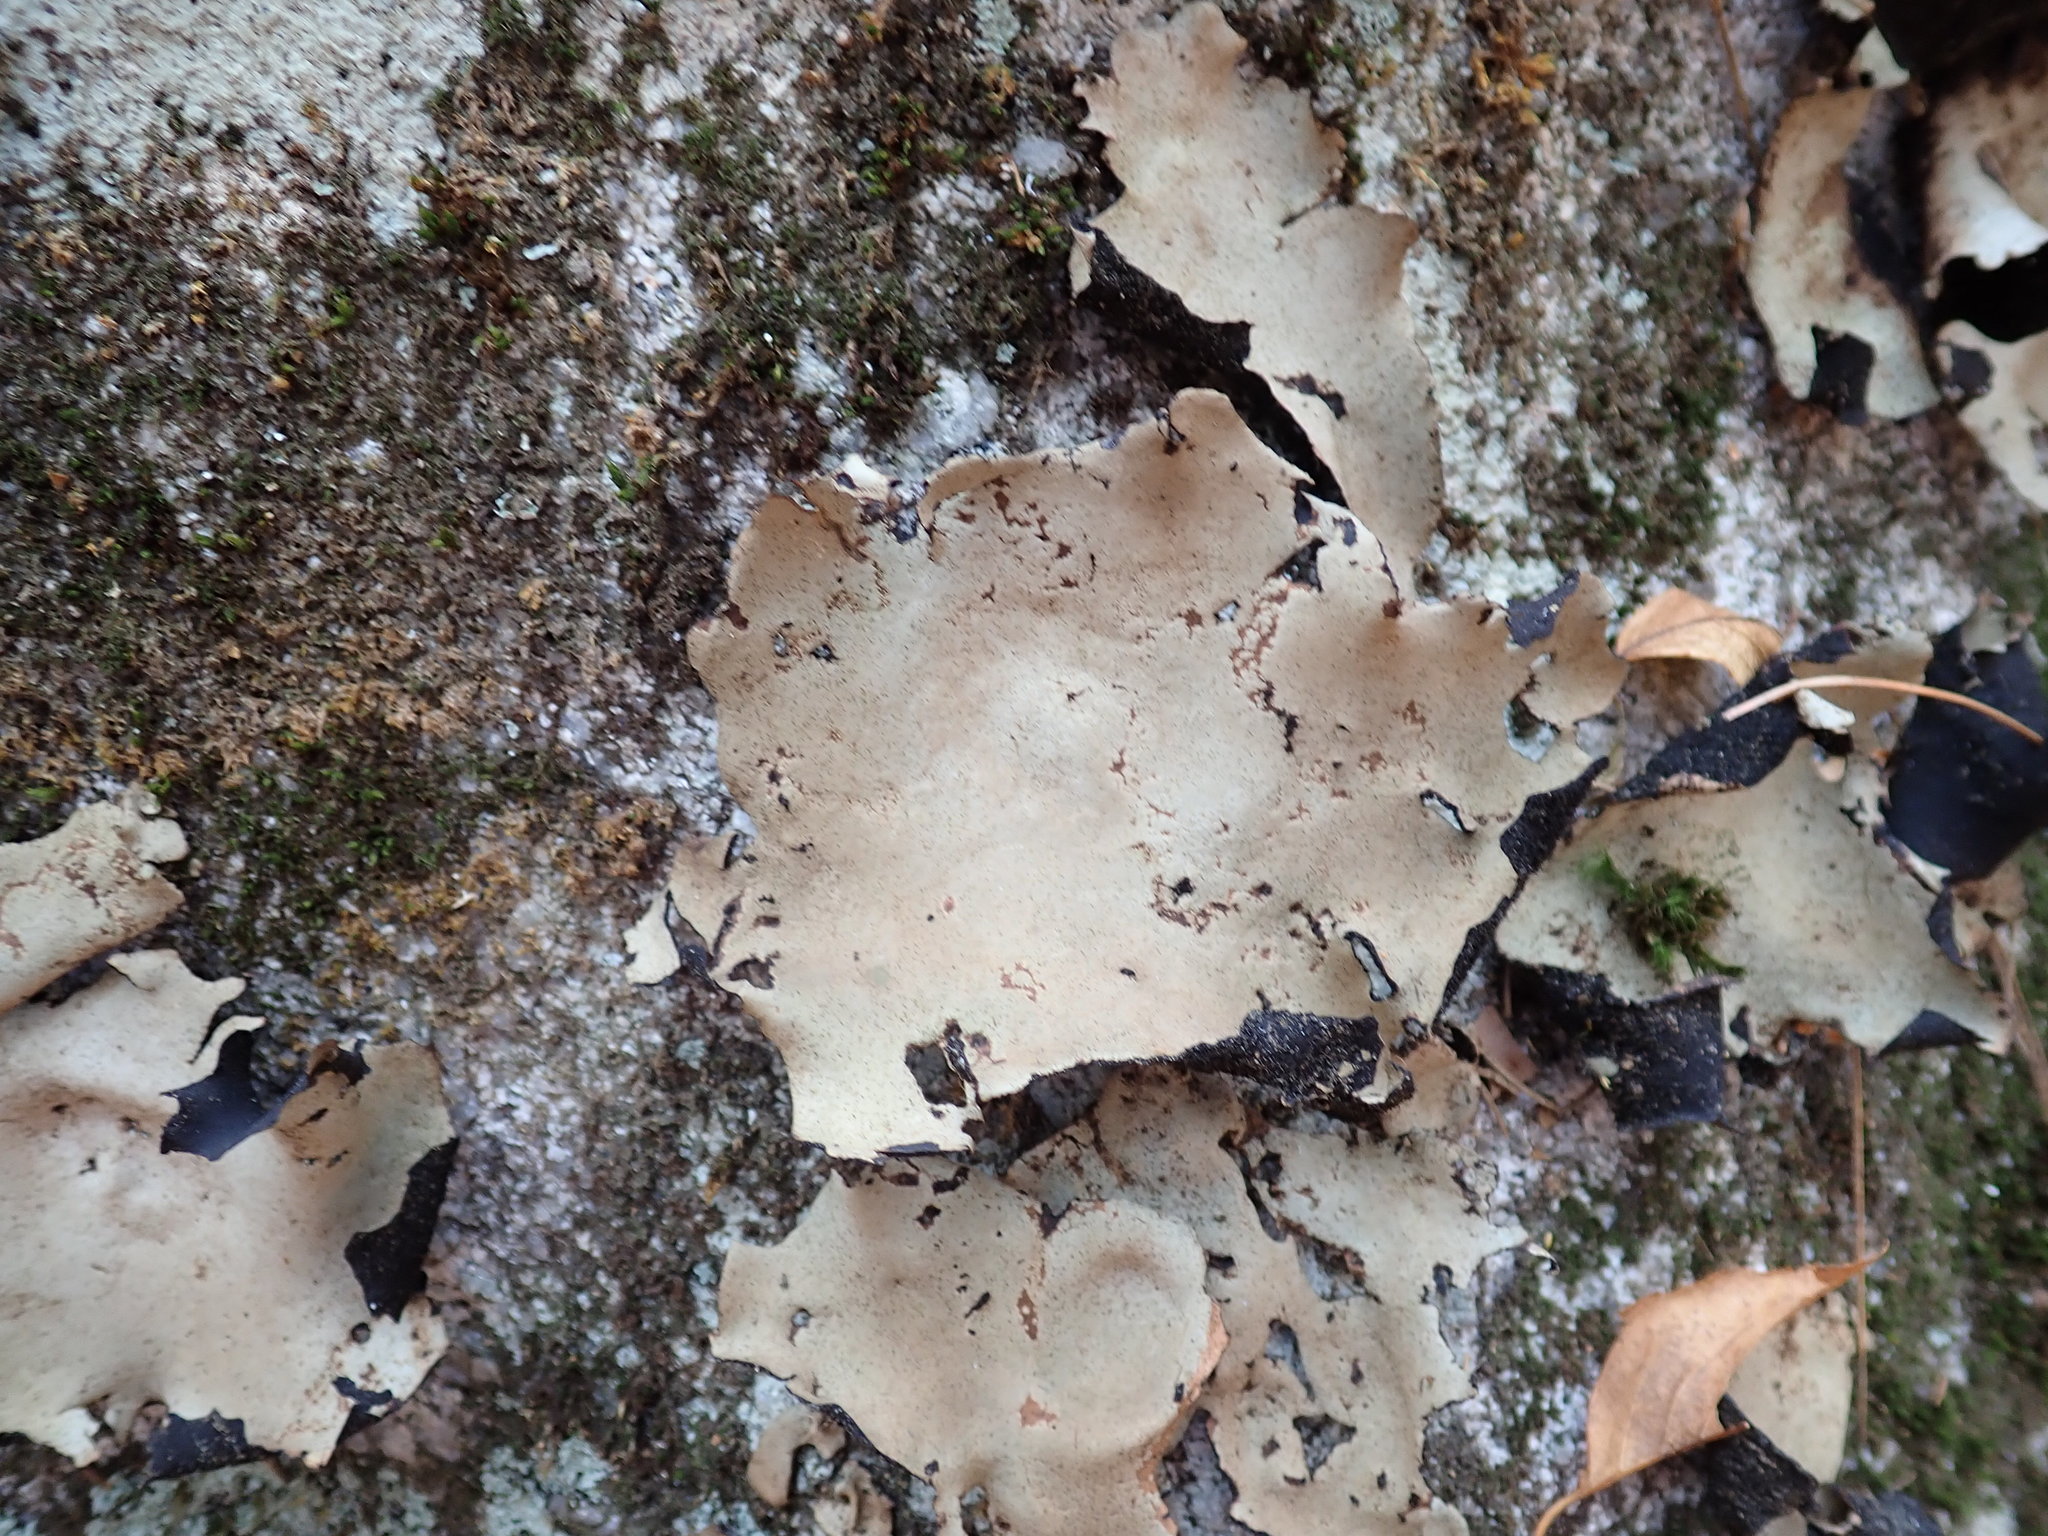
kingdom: Fungi
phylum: Ascomycota
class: Lecanoromycetes
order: Umbilicariales
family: Umbilicariaceae
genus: Umbilicaria
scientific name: Umbilicaria mammulata
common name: Smooth rock tripe
